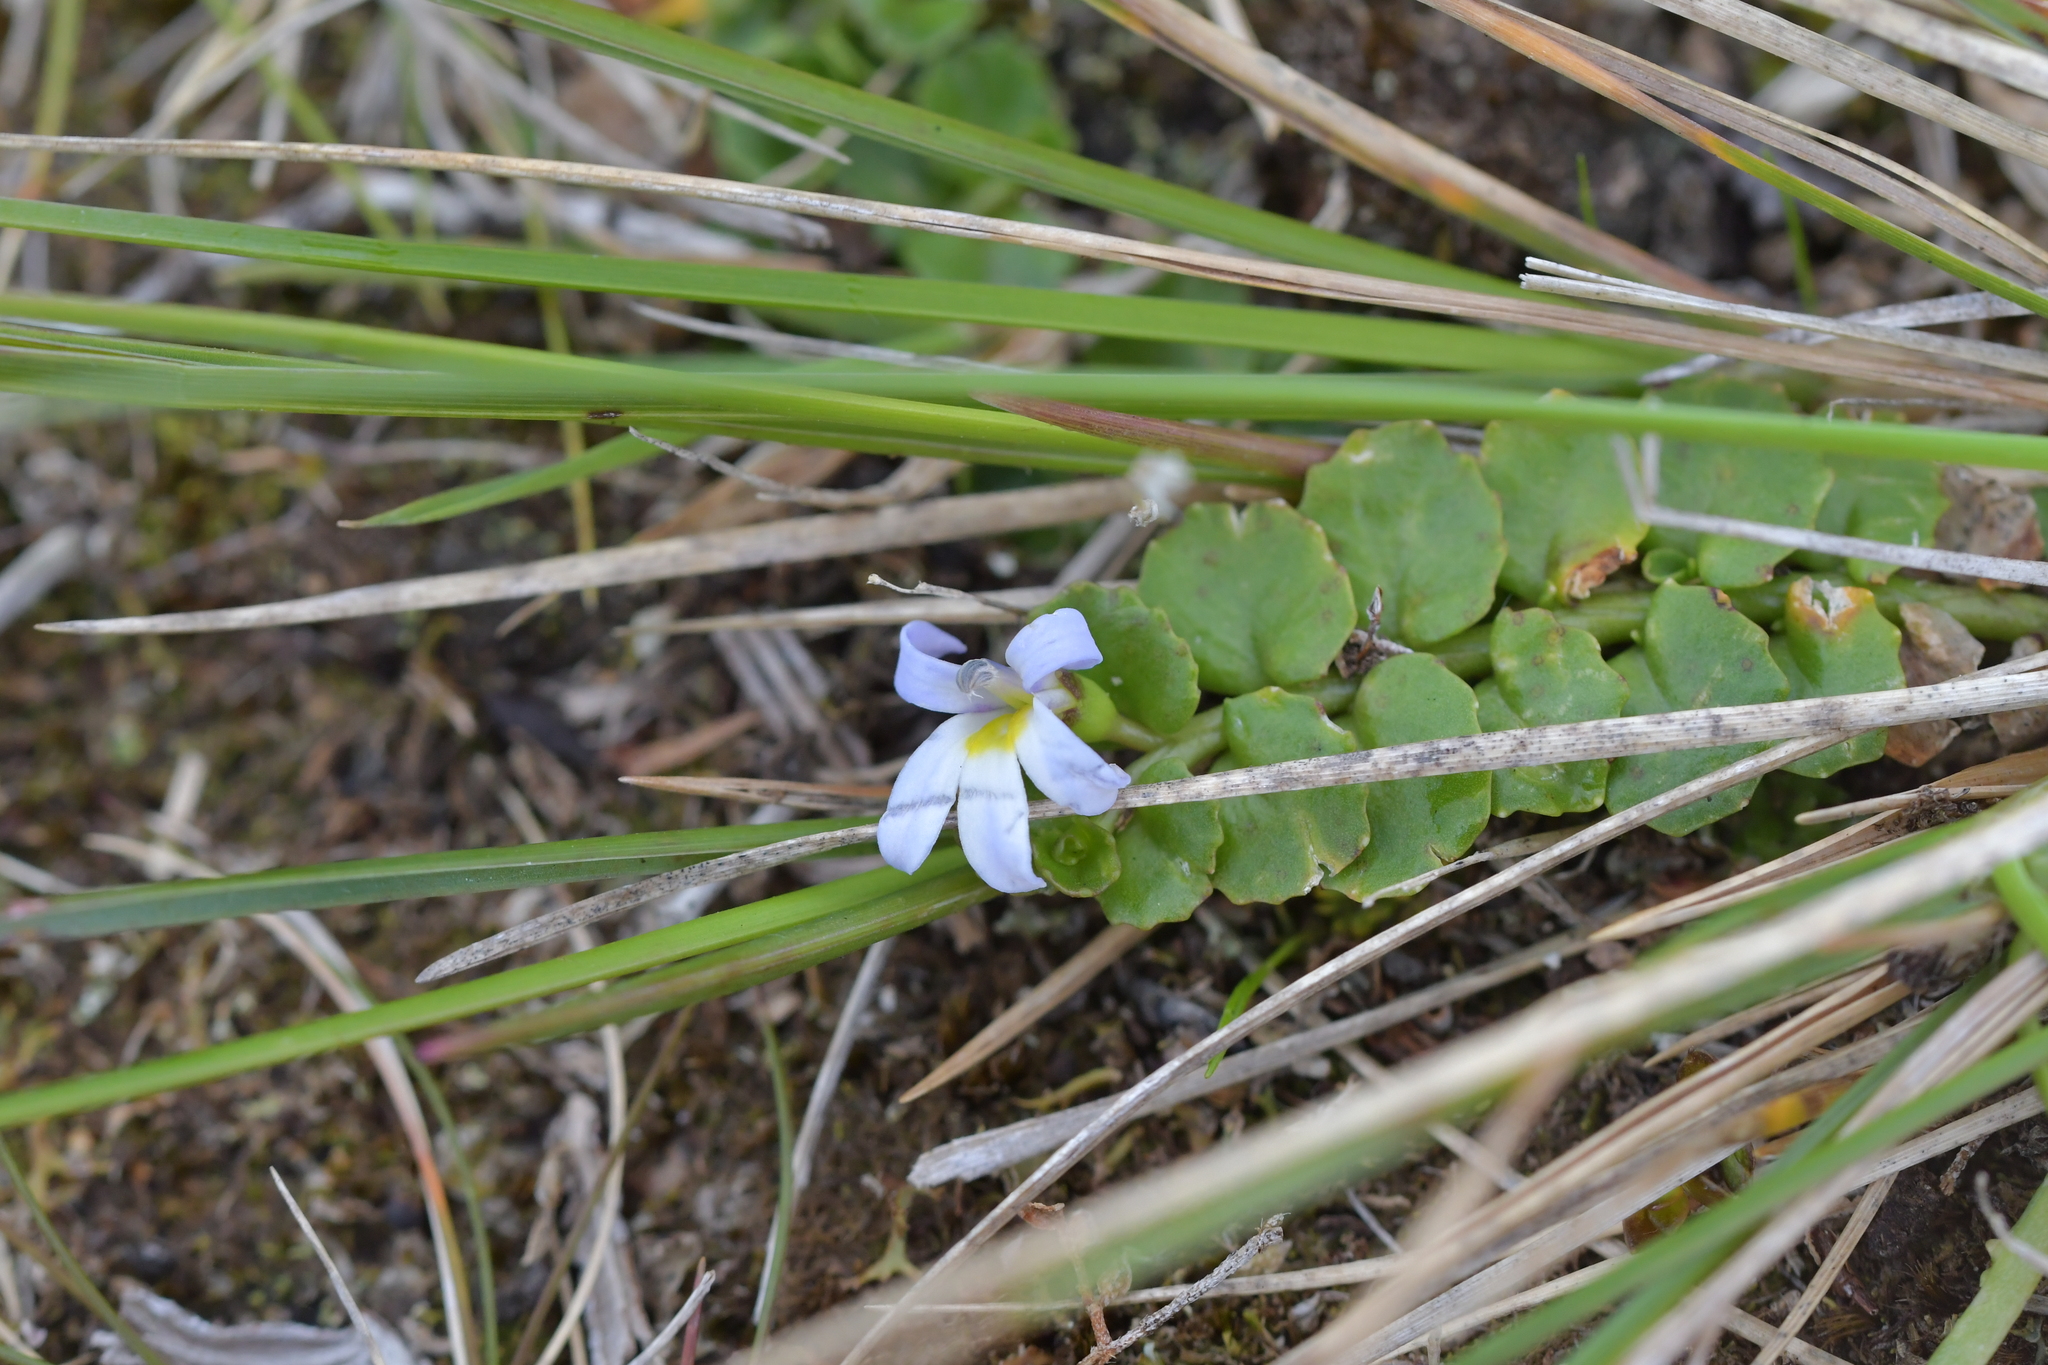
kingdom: Plantae
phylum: Tracheophyta
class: Magnoliopsida
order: Asterales
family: Campanulaceae
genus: Lobelia
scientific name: Lobelia arenaria
